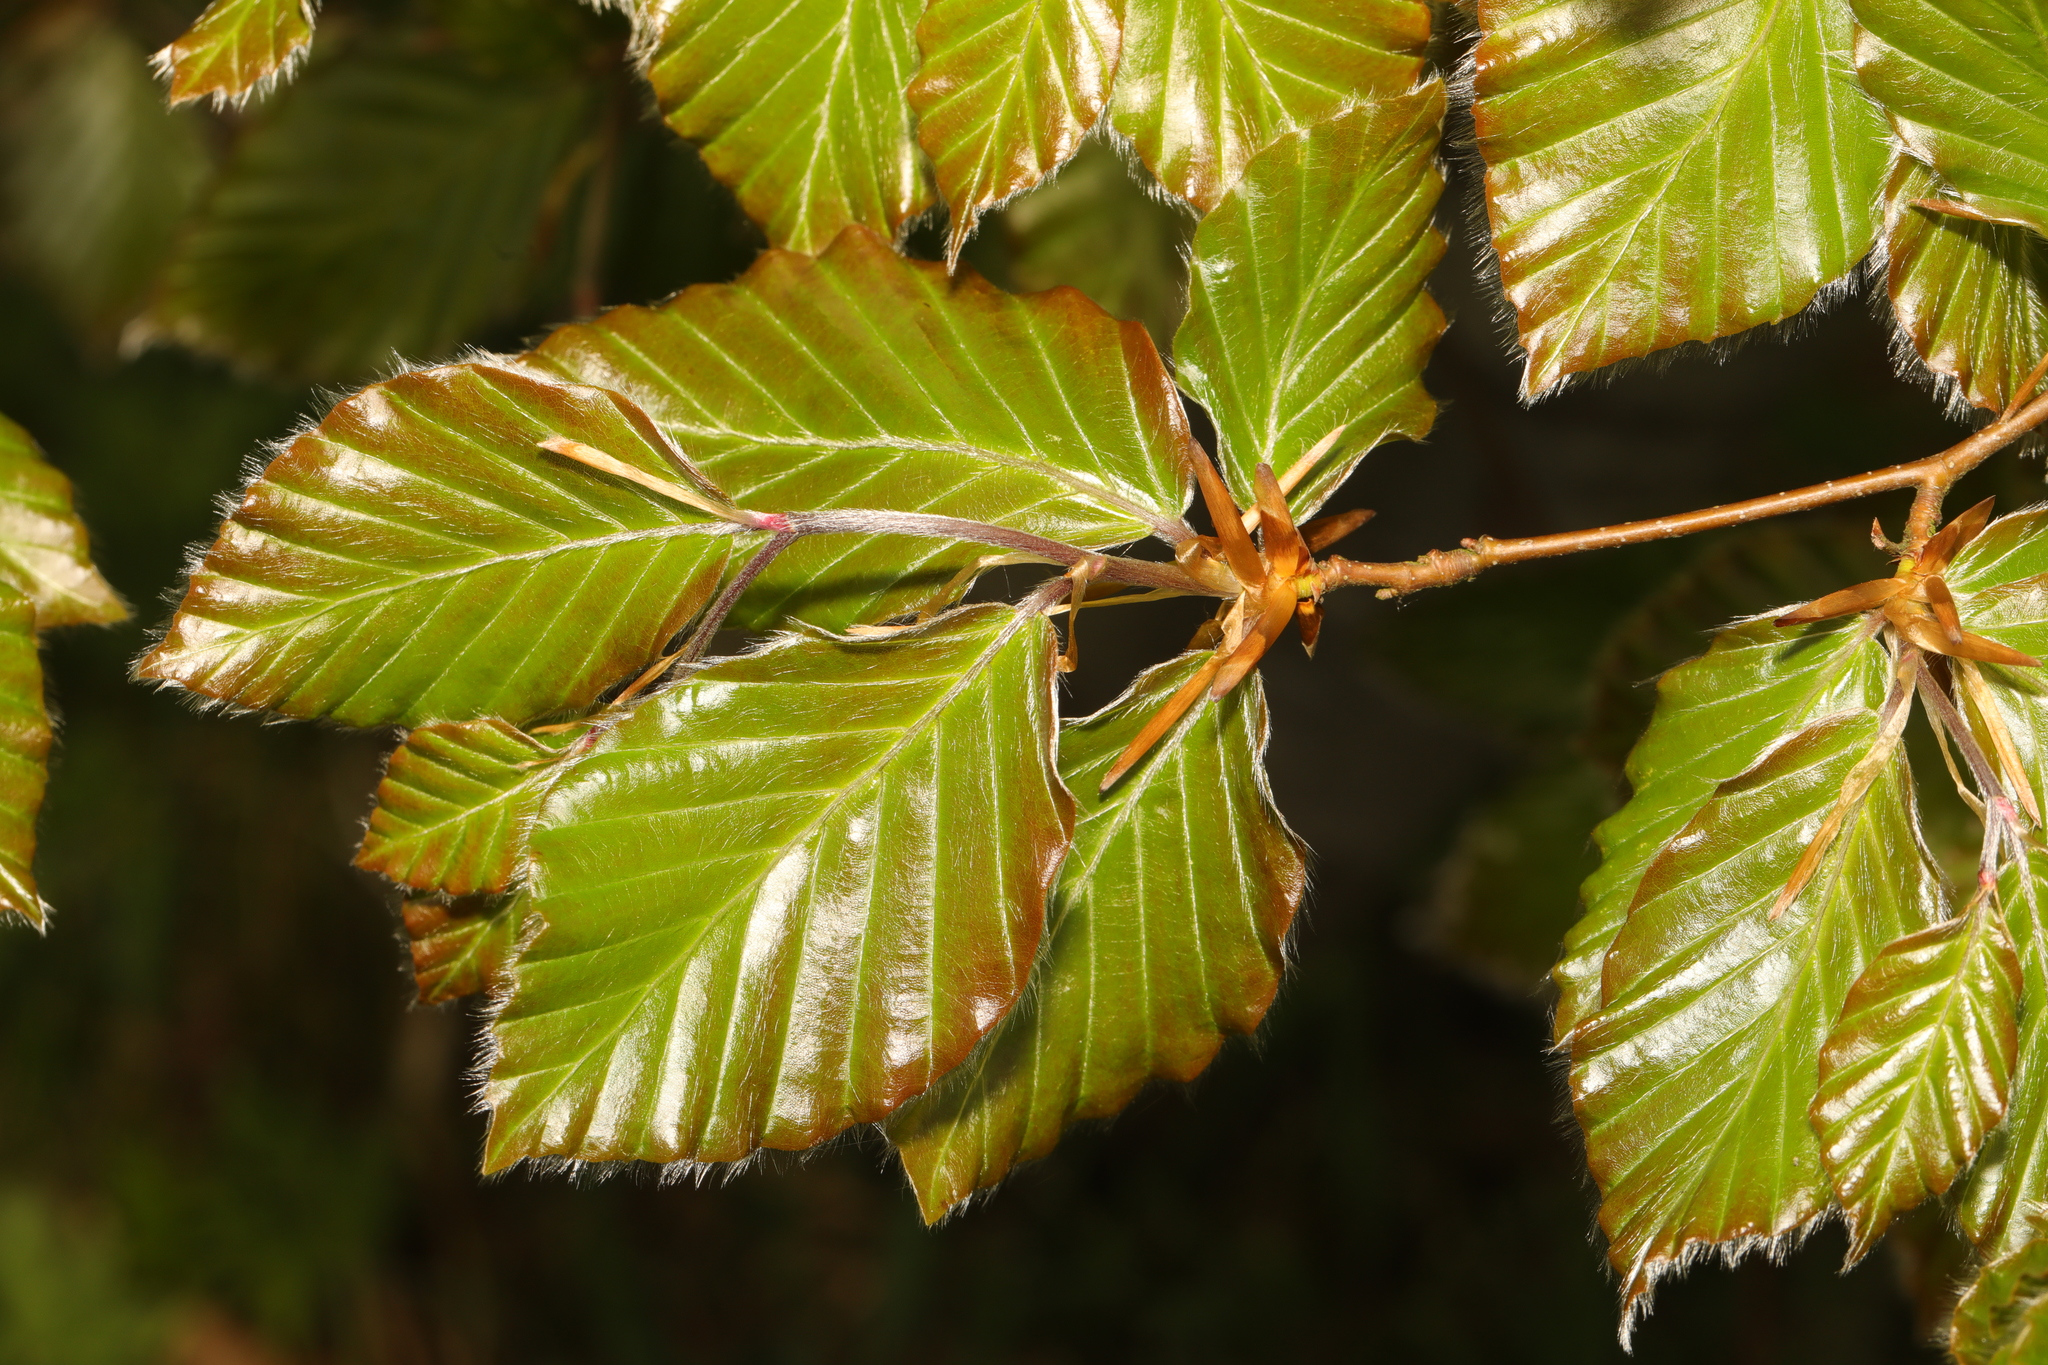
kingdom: Plantae
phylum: Tracheophyta
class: Magnoliopsida
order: Fagales
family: Fagaceae
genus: Fagus
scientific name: Fagus sylvatica
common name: Beech
